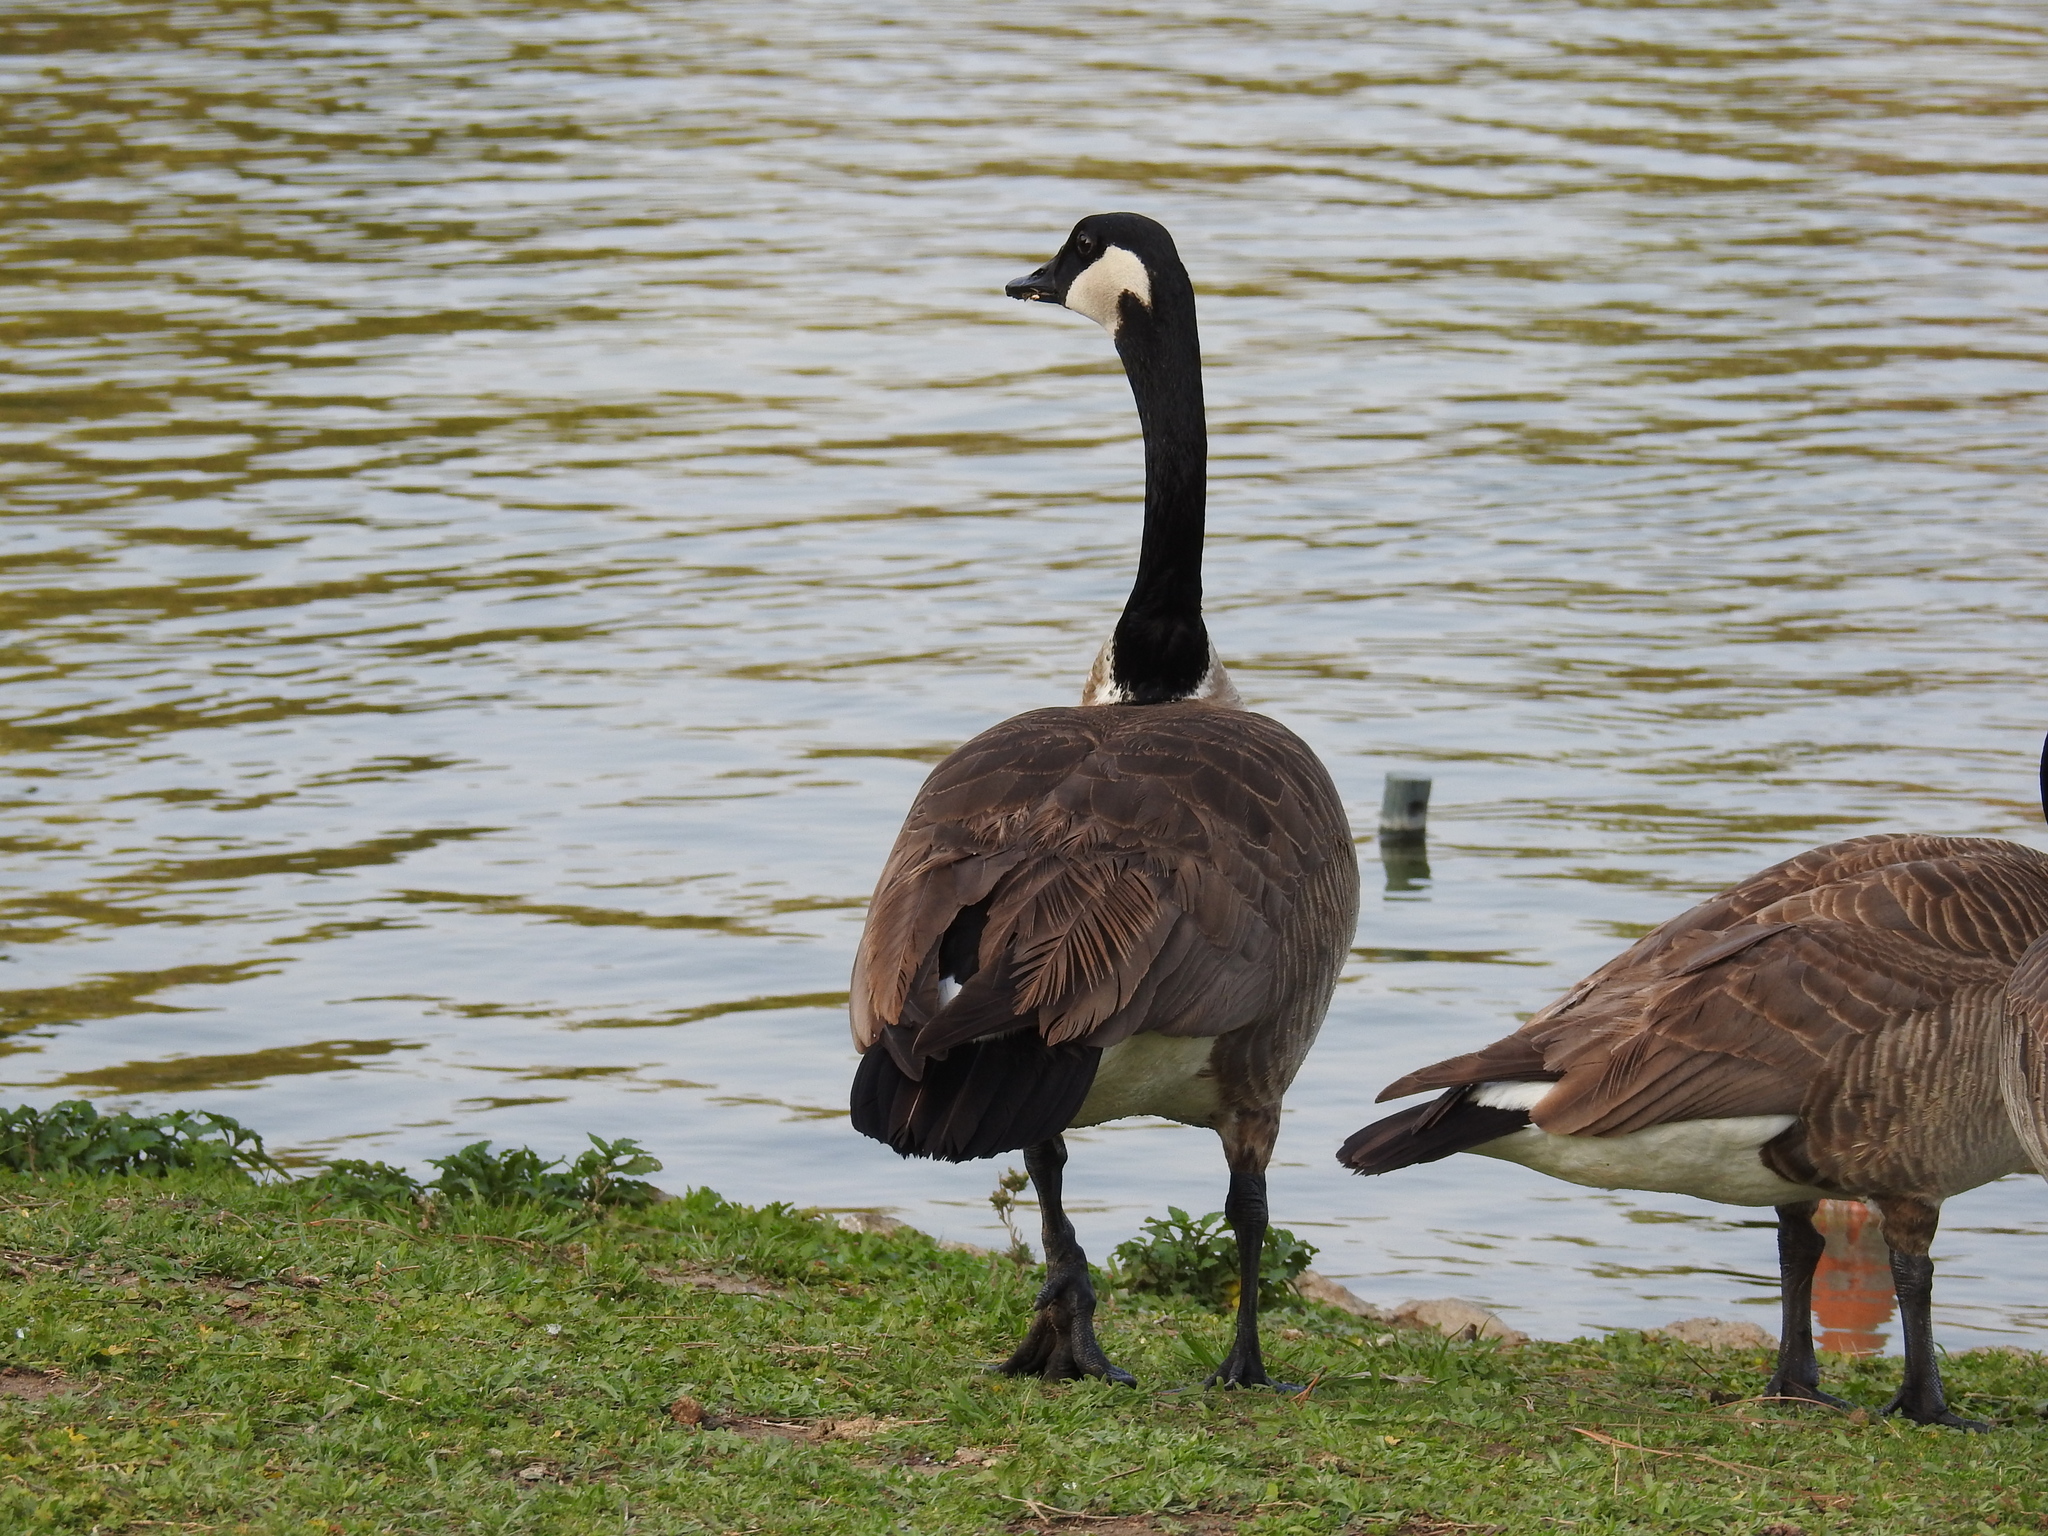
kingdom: Animalia
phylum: Chordata
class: Aves
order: Anseriformes
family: Anatidae
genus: Branta
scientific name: Branta canadensis
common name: Canada goose
